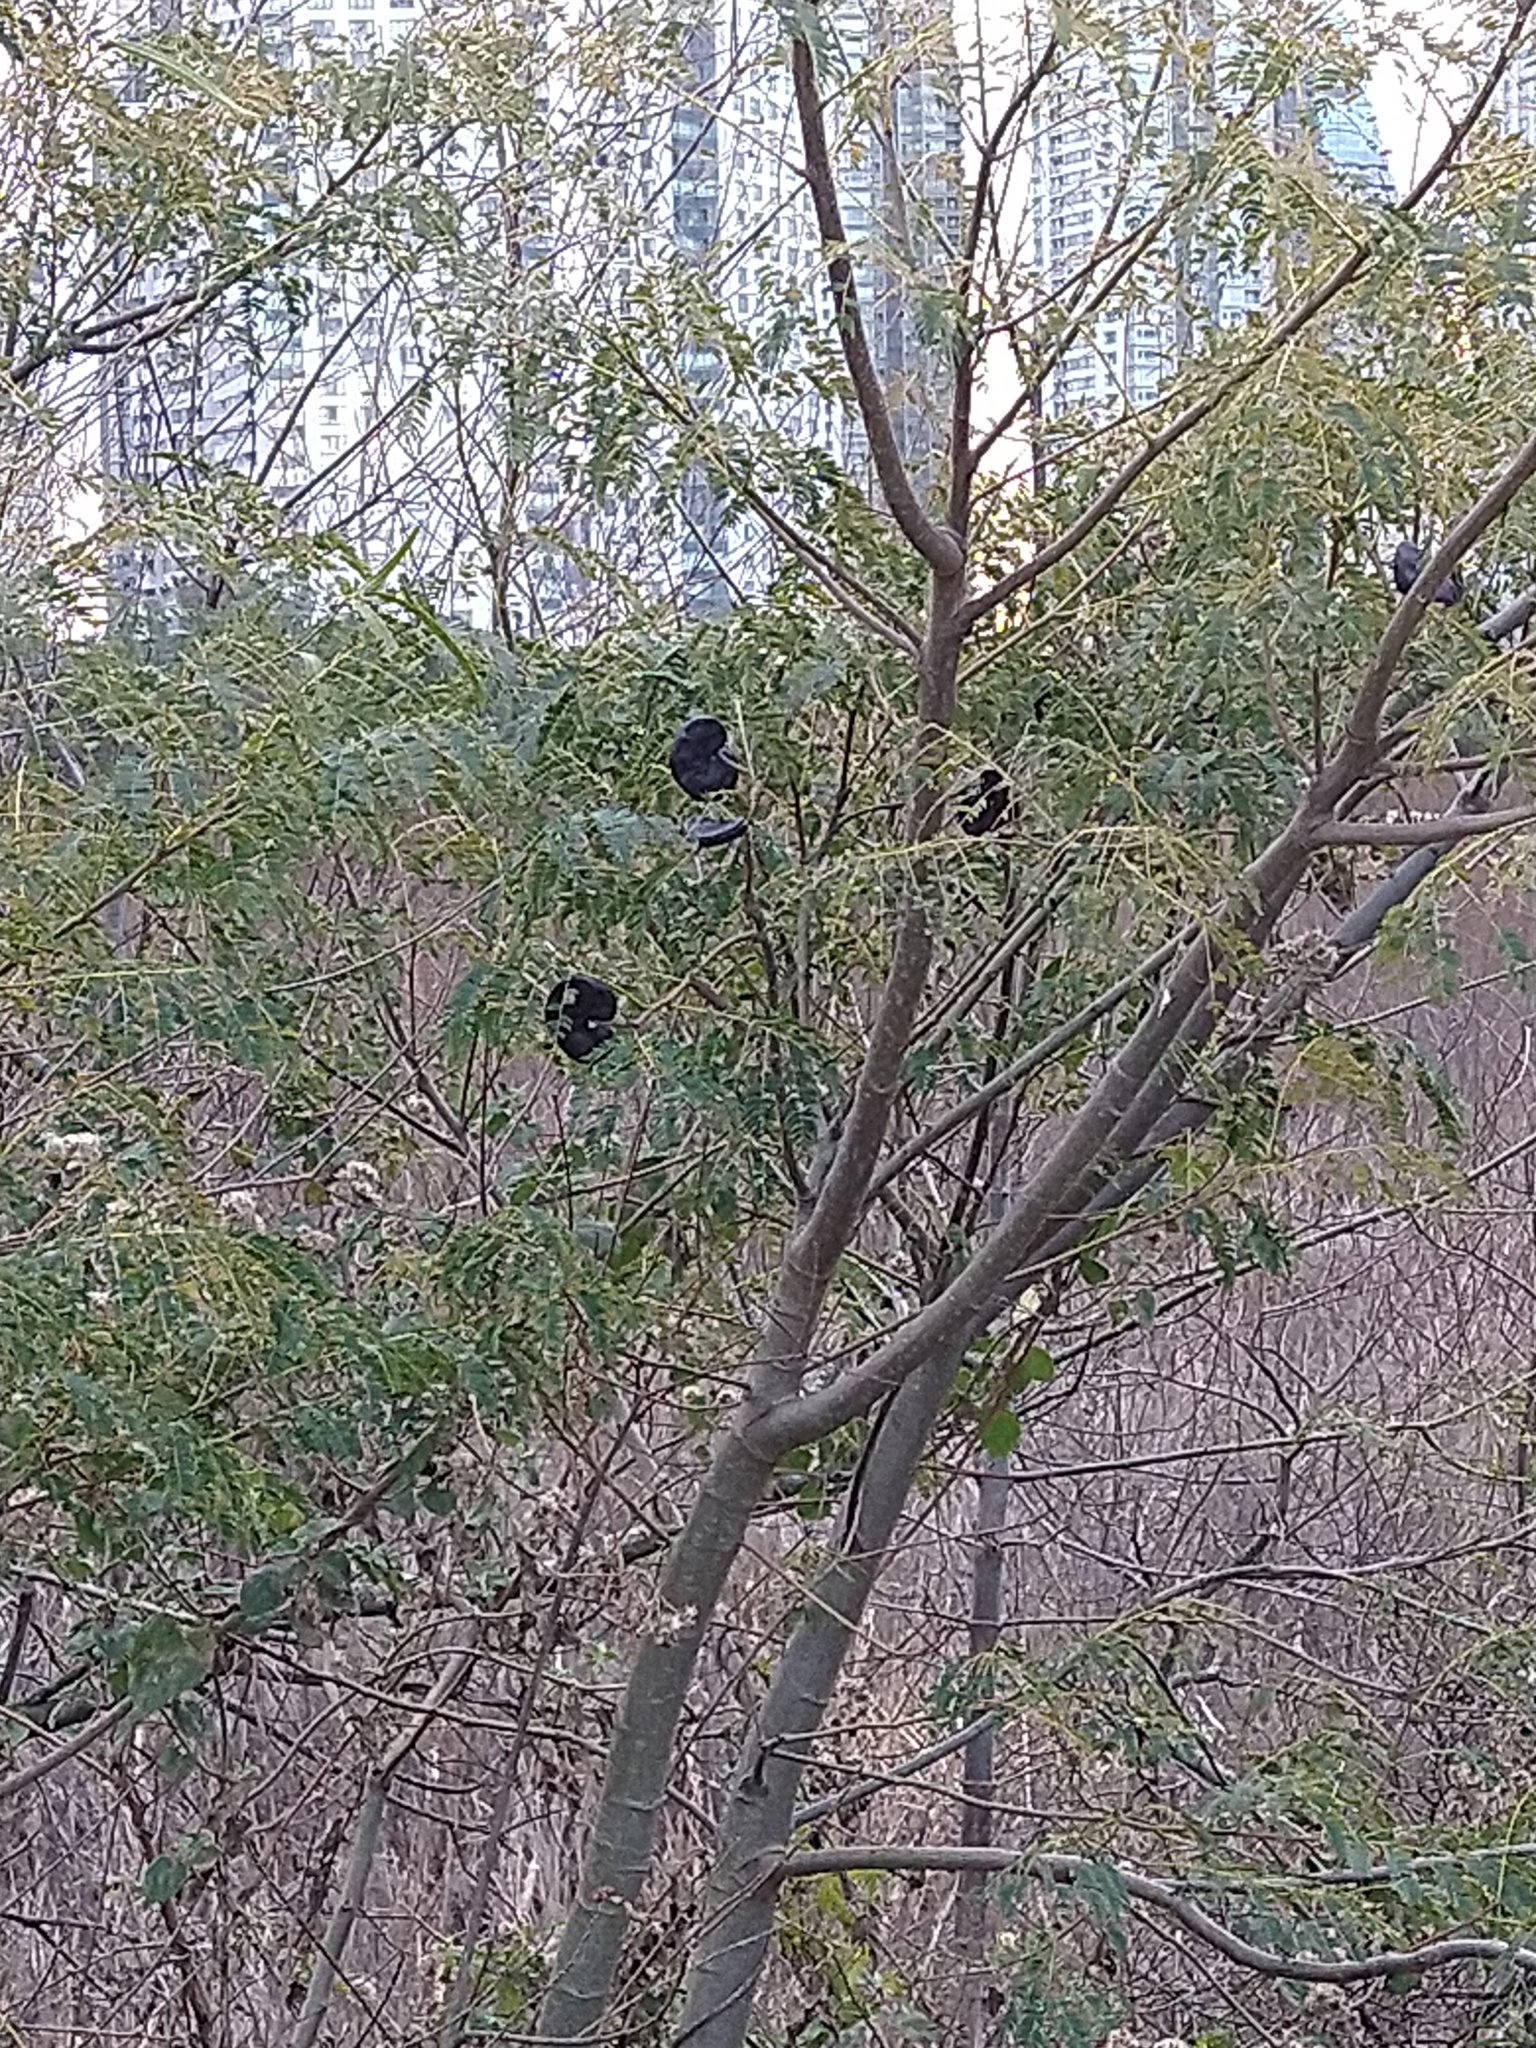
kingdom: Plantae
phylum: Tracheophyta
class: Magnoliopsida
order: Fabales
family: Fabaceae
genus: Enterolobium
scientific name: Enterolobium contortisiliquum
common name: Pacara earpod tree
